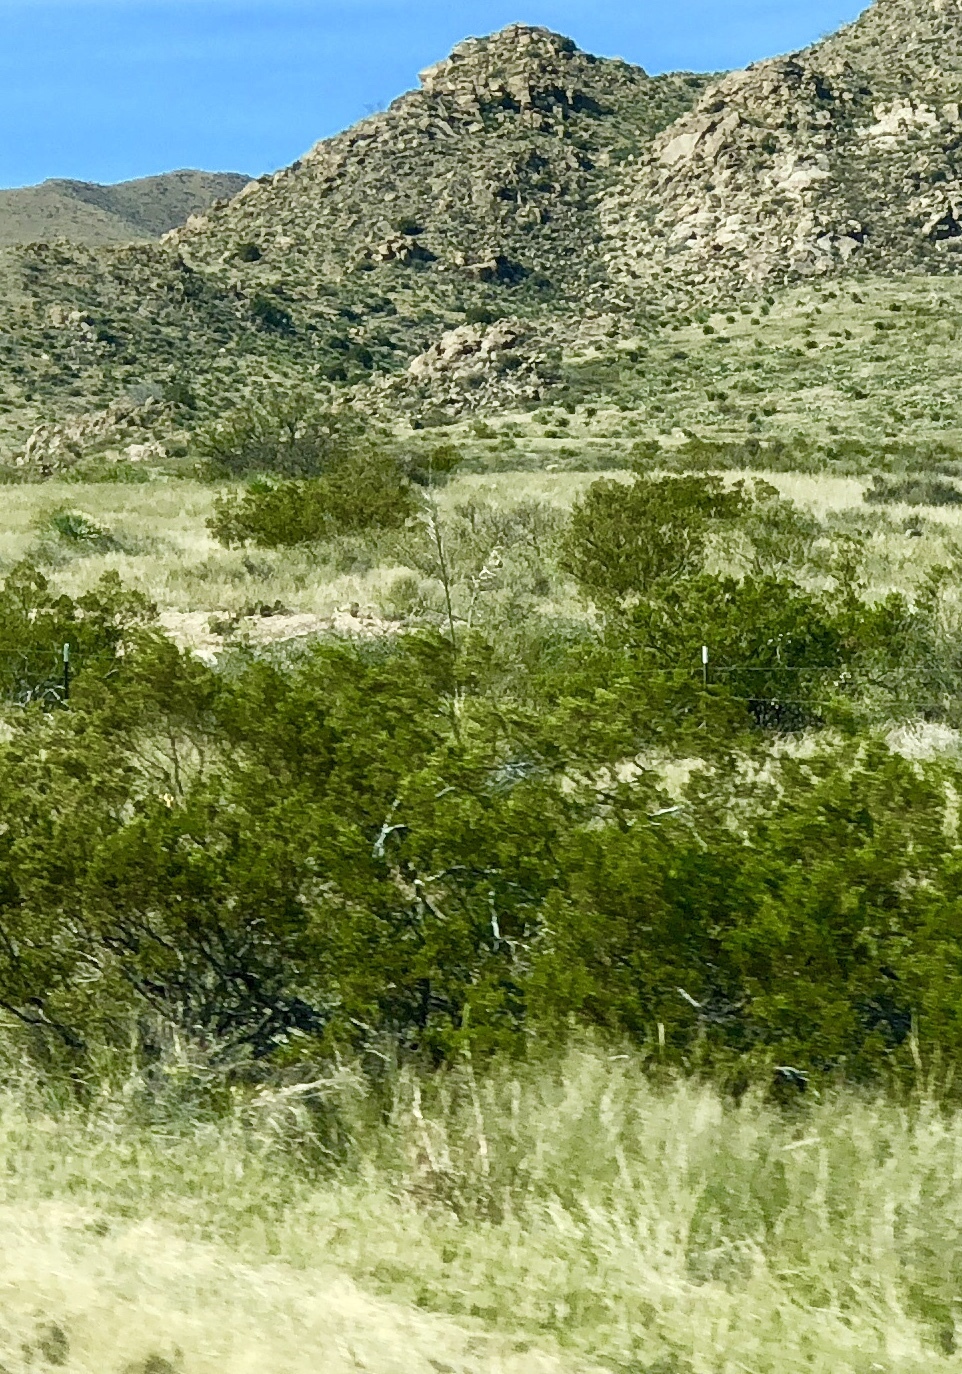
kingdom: Plantae
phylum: Tracheophyta
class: Magnoliopsida
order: Zygophyllales
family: Zygophyllaceae
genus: Larrea
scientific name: Larrea tridentata
